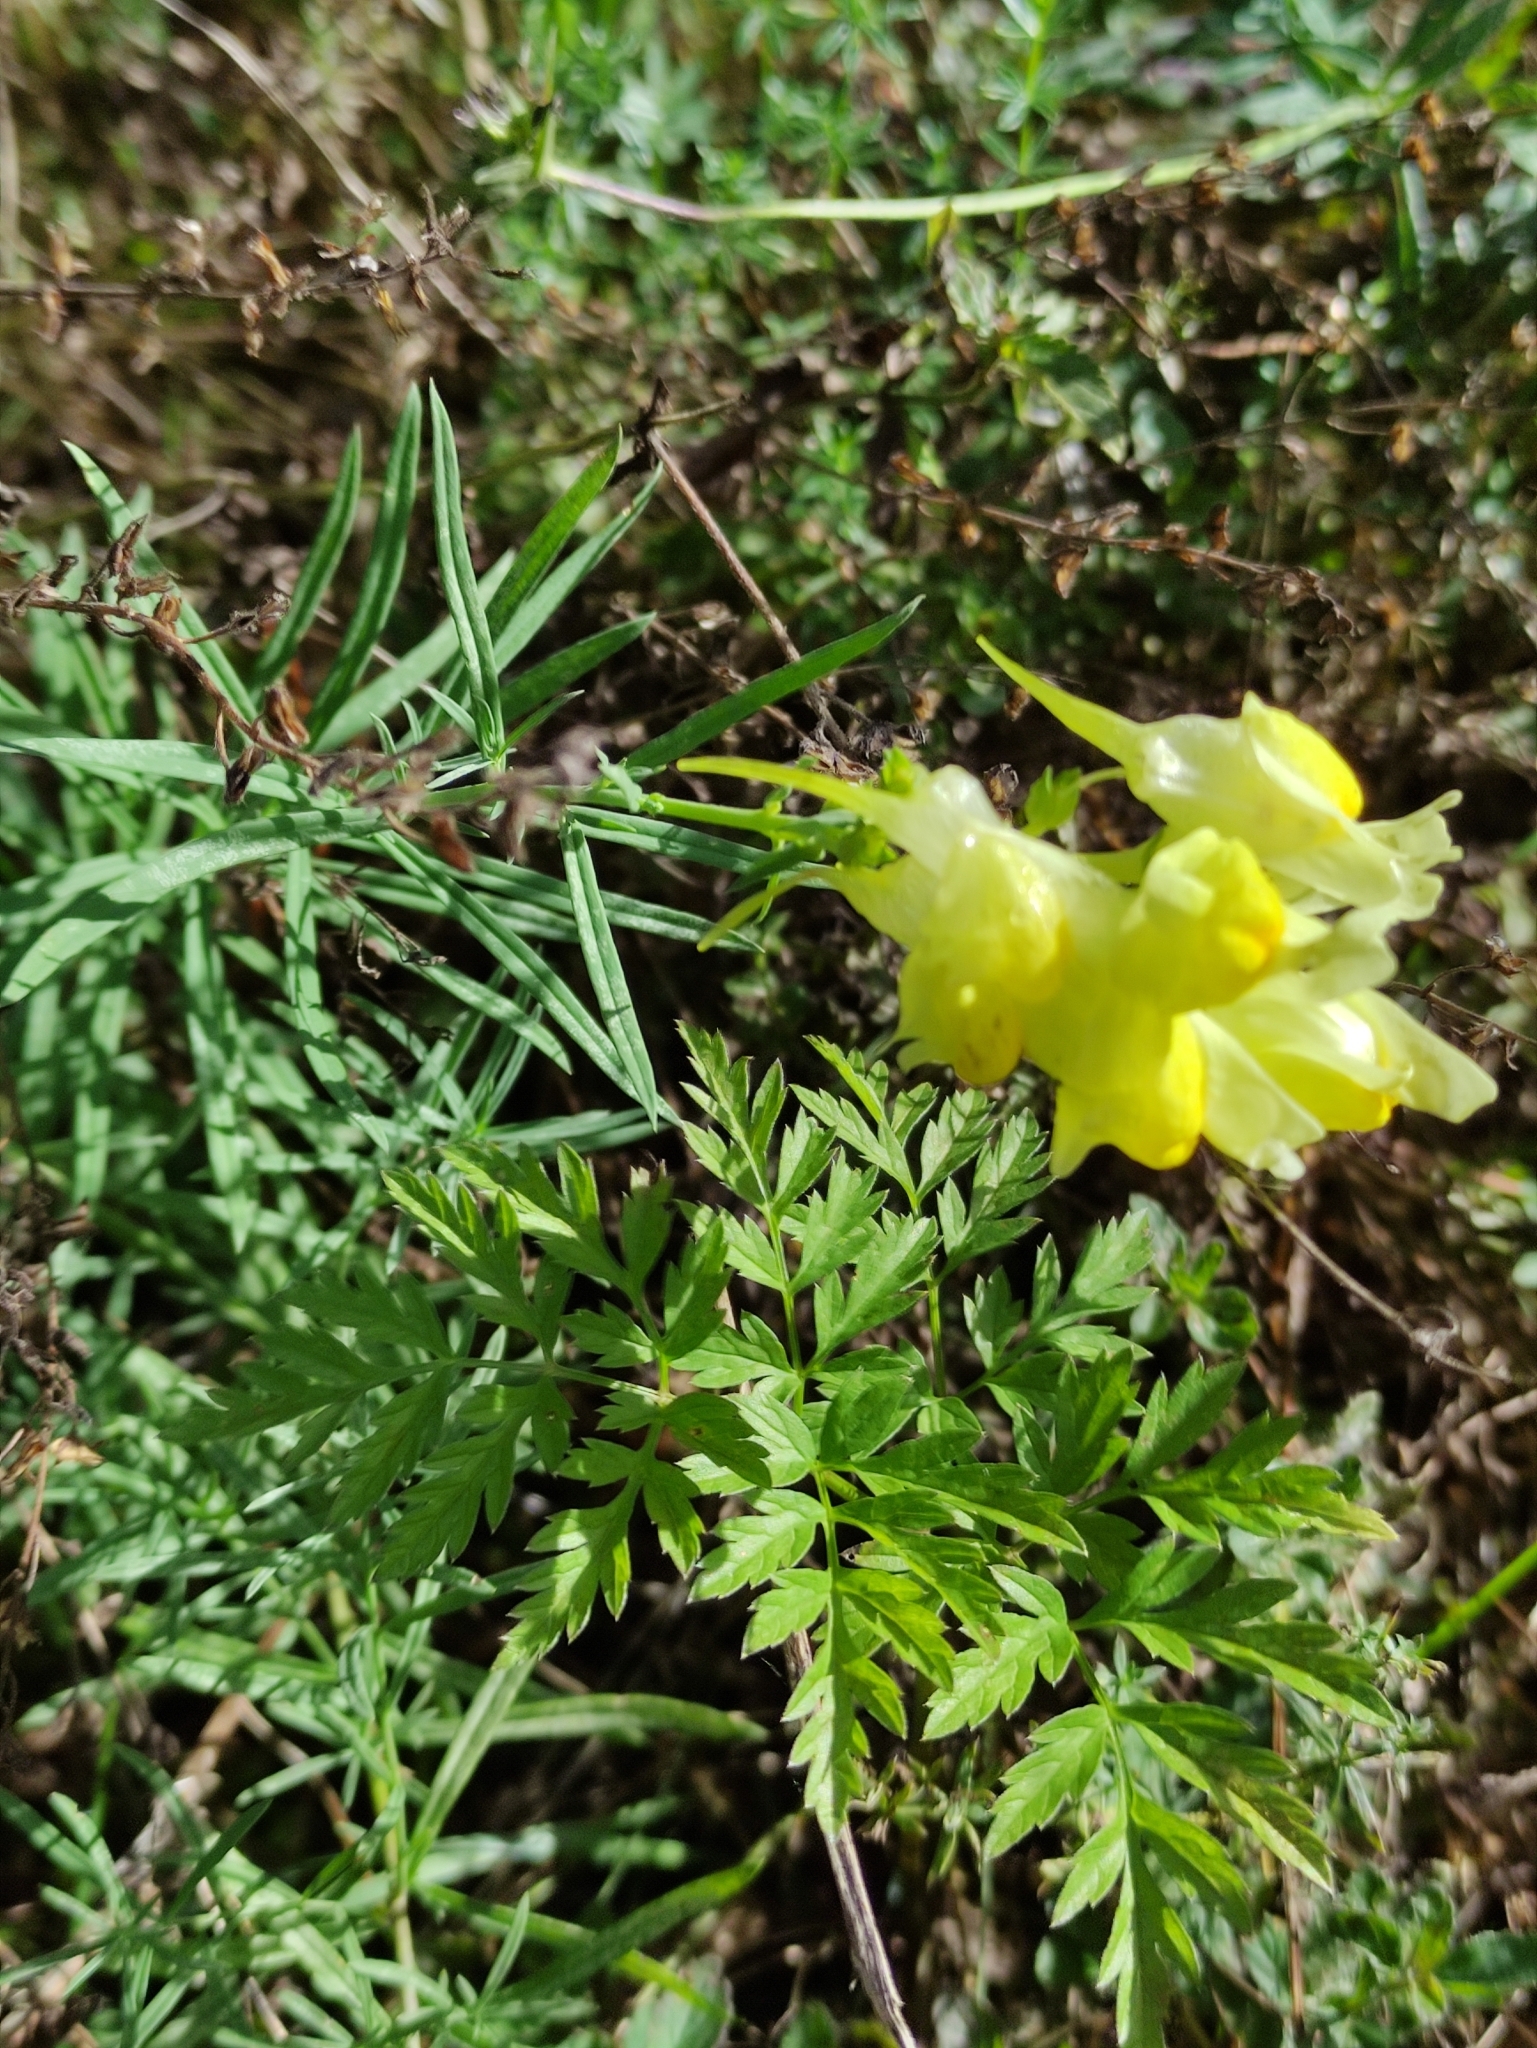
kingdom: Plantae
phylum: Tracheophyta
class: Magnoliopsida
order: Lamiales
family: Plantaginaceae
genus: Linaria
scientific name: Linaria vulgaris
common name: Butter and eggs
